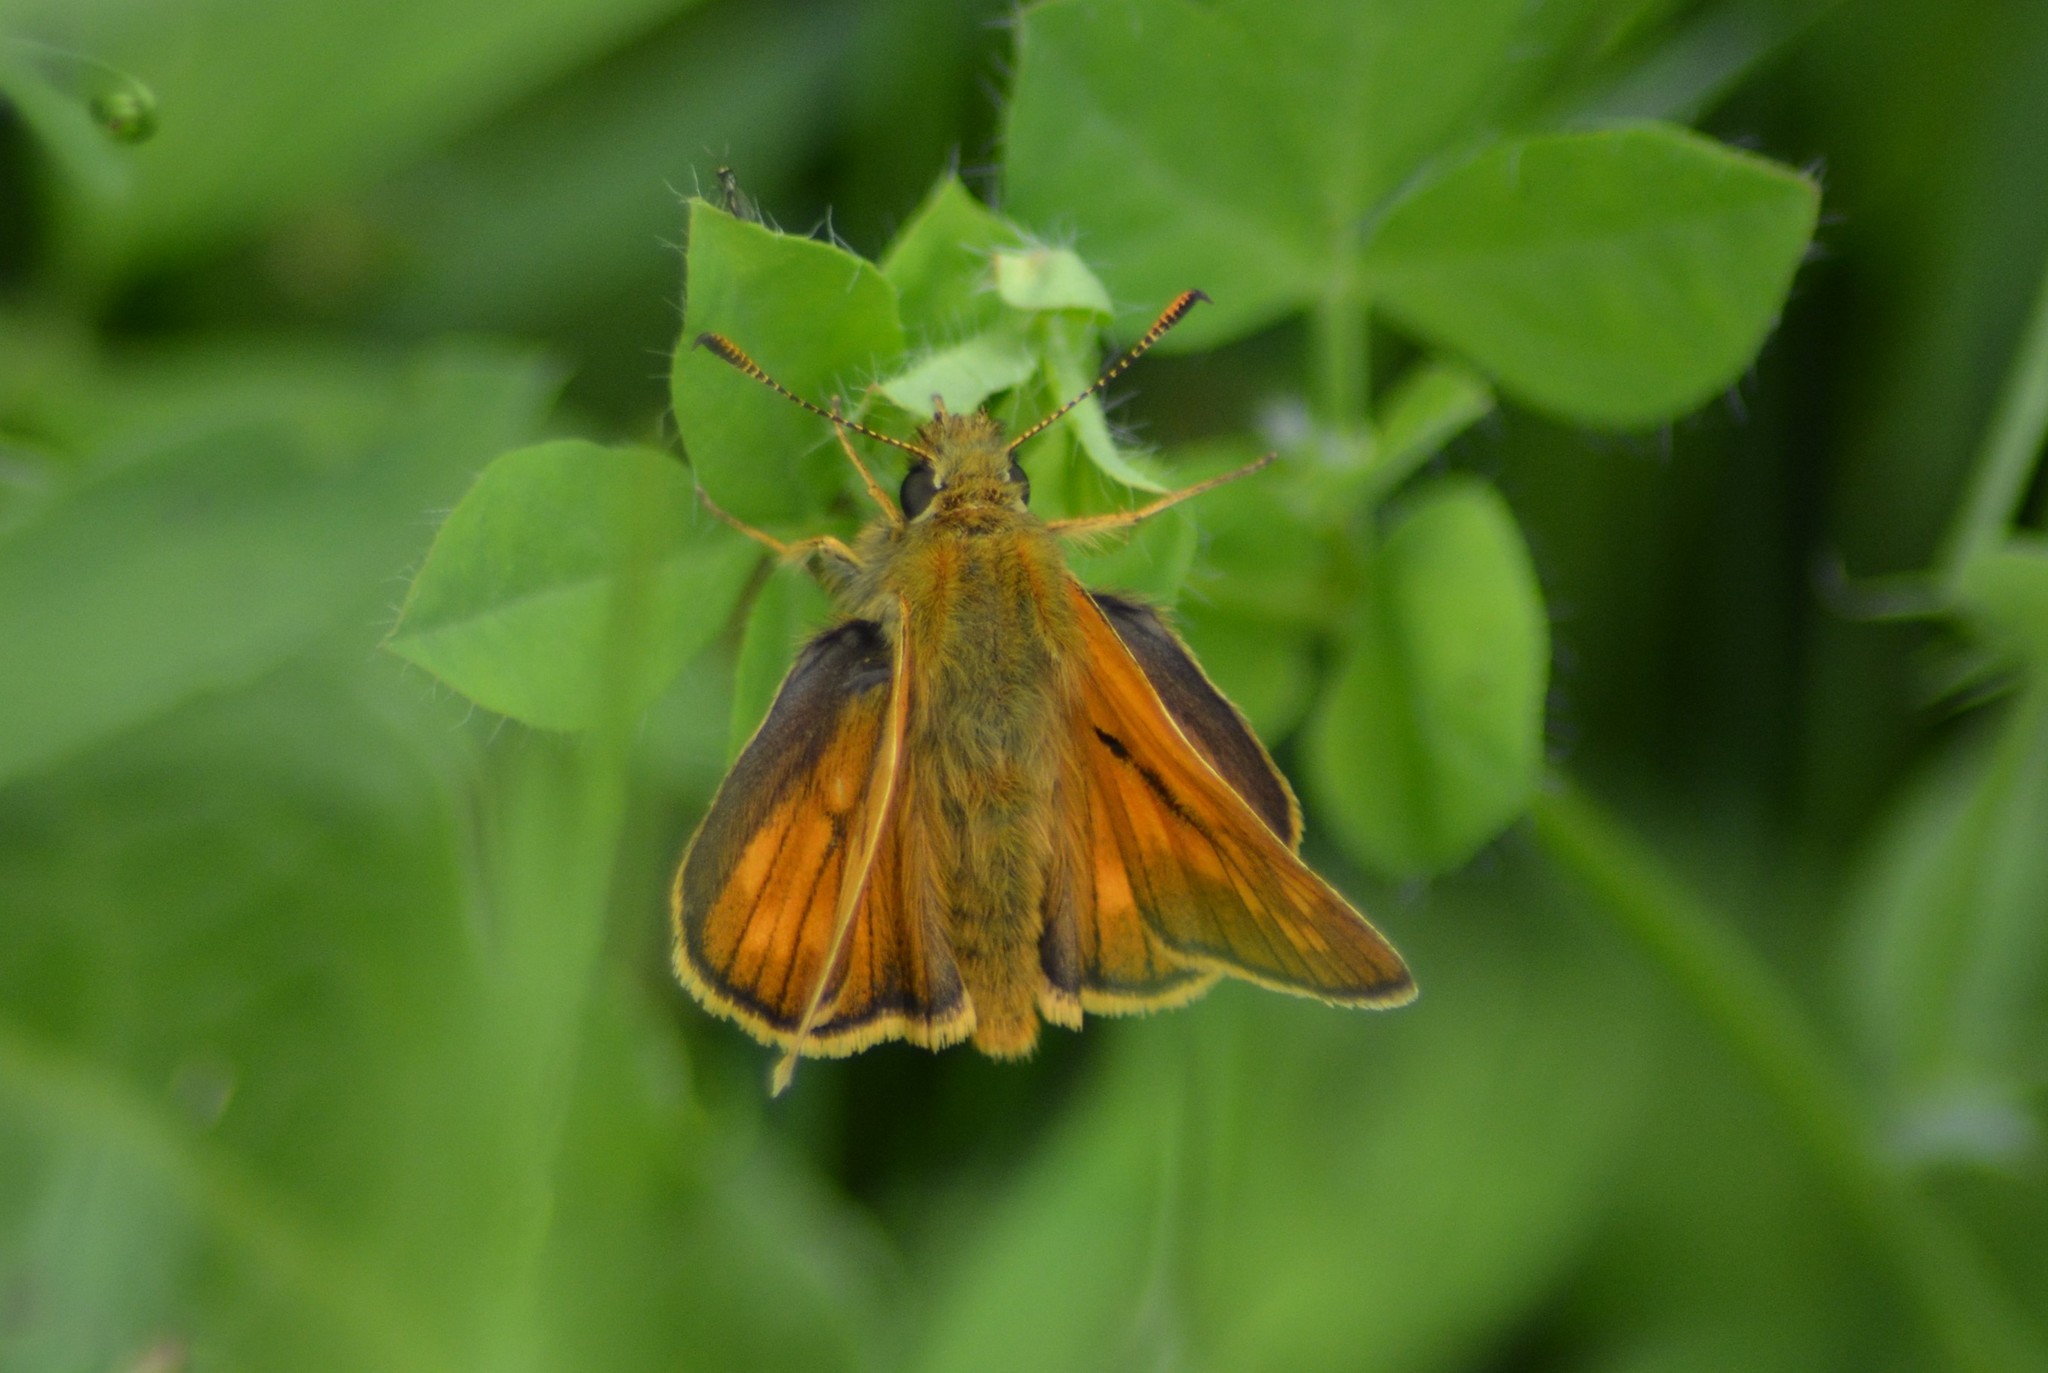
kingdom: Animalia
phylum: Arthropoda
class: Insecta
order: Lepidoptera
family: Hesperiidae
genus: Ochlodes
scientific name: Ochlodes venata
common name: Large skipper
